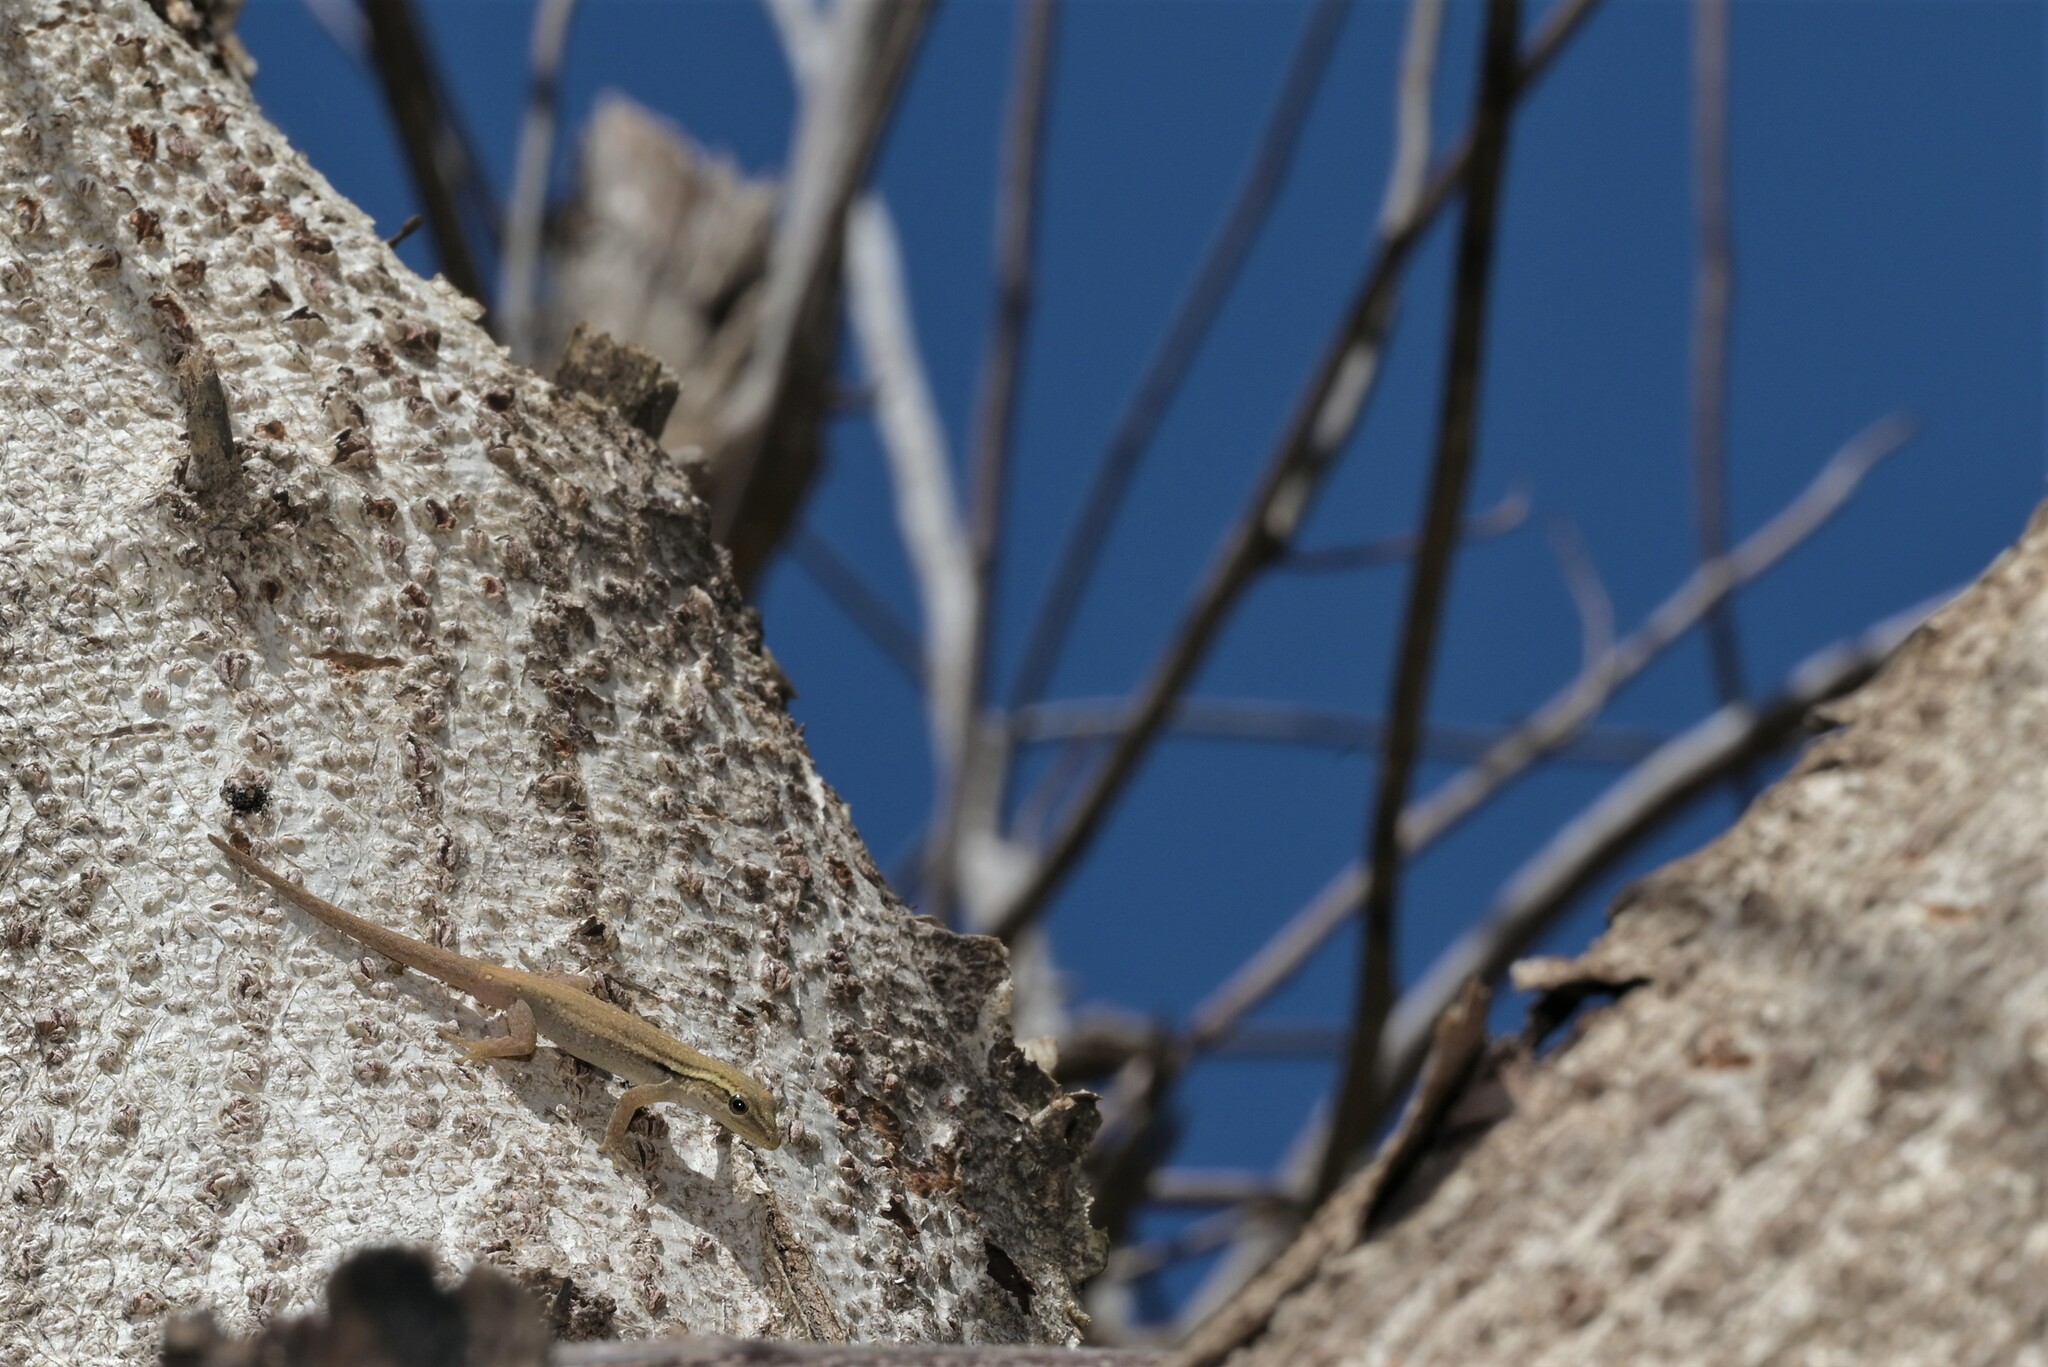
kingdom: Animalia
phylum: Chordata
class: Squamata
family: Gekkonidae
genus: Lygodactylus
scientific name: Lygodactylus capensis
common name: Cape dwarf gecko
